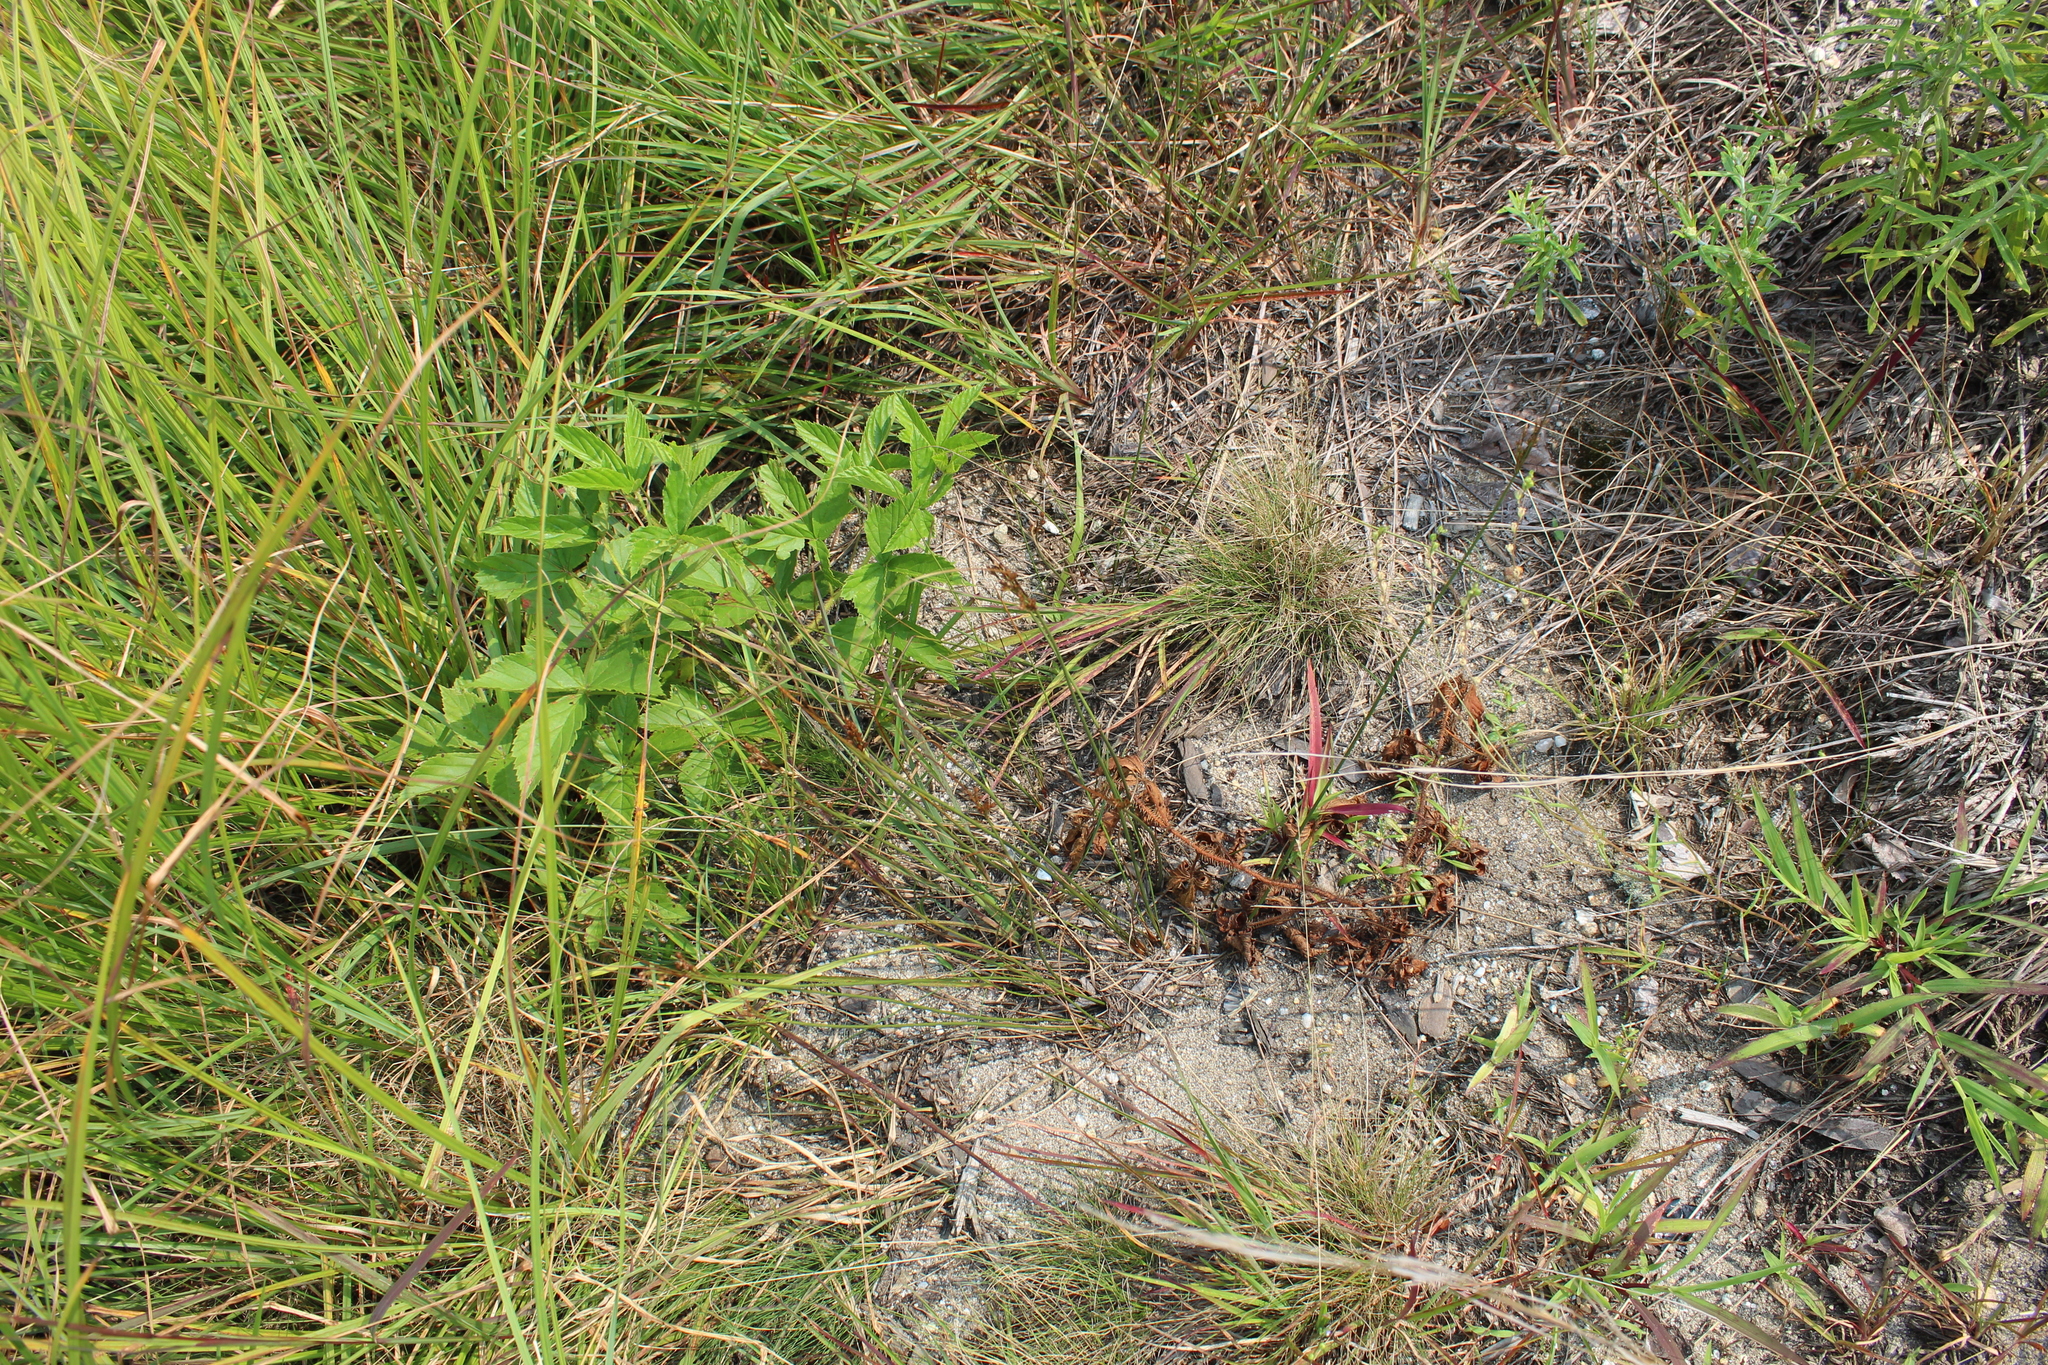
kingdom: Plantae
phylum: Tracheophyta
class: Liliopsida
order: Poales
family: Juncaceae
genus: Juncus
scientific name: Juncus greenei
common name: Greene's rush
